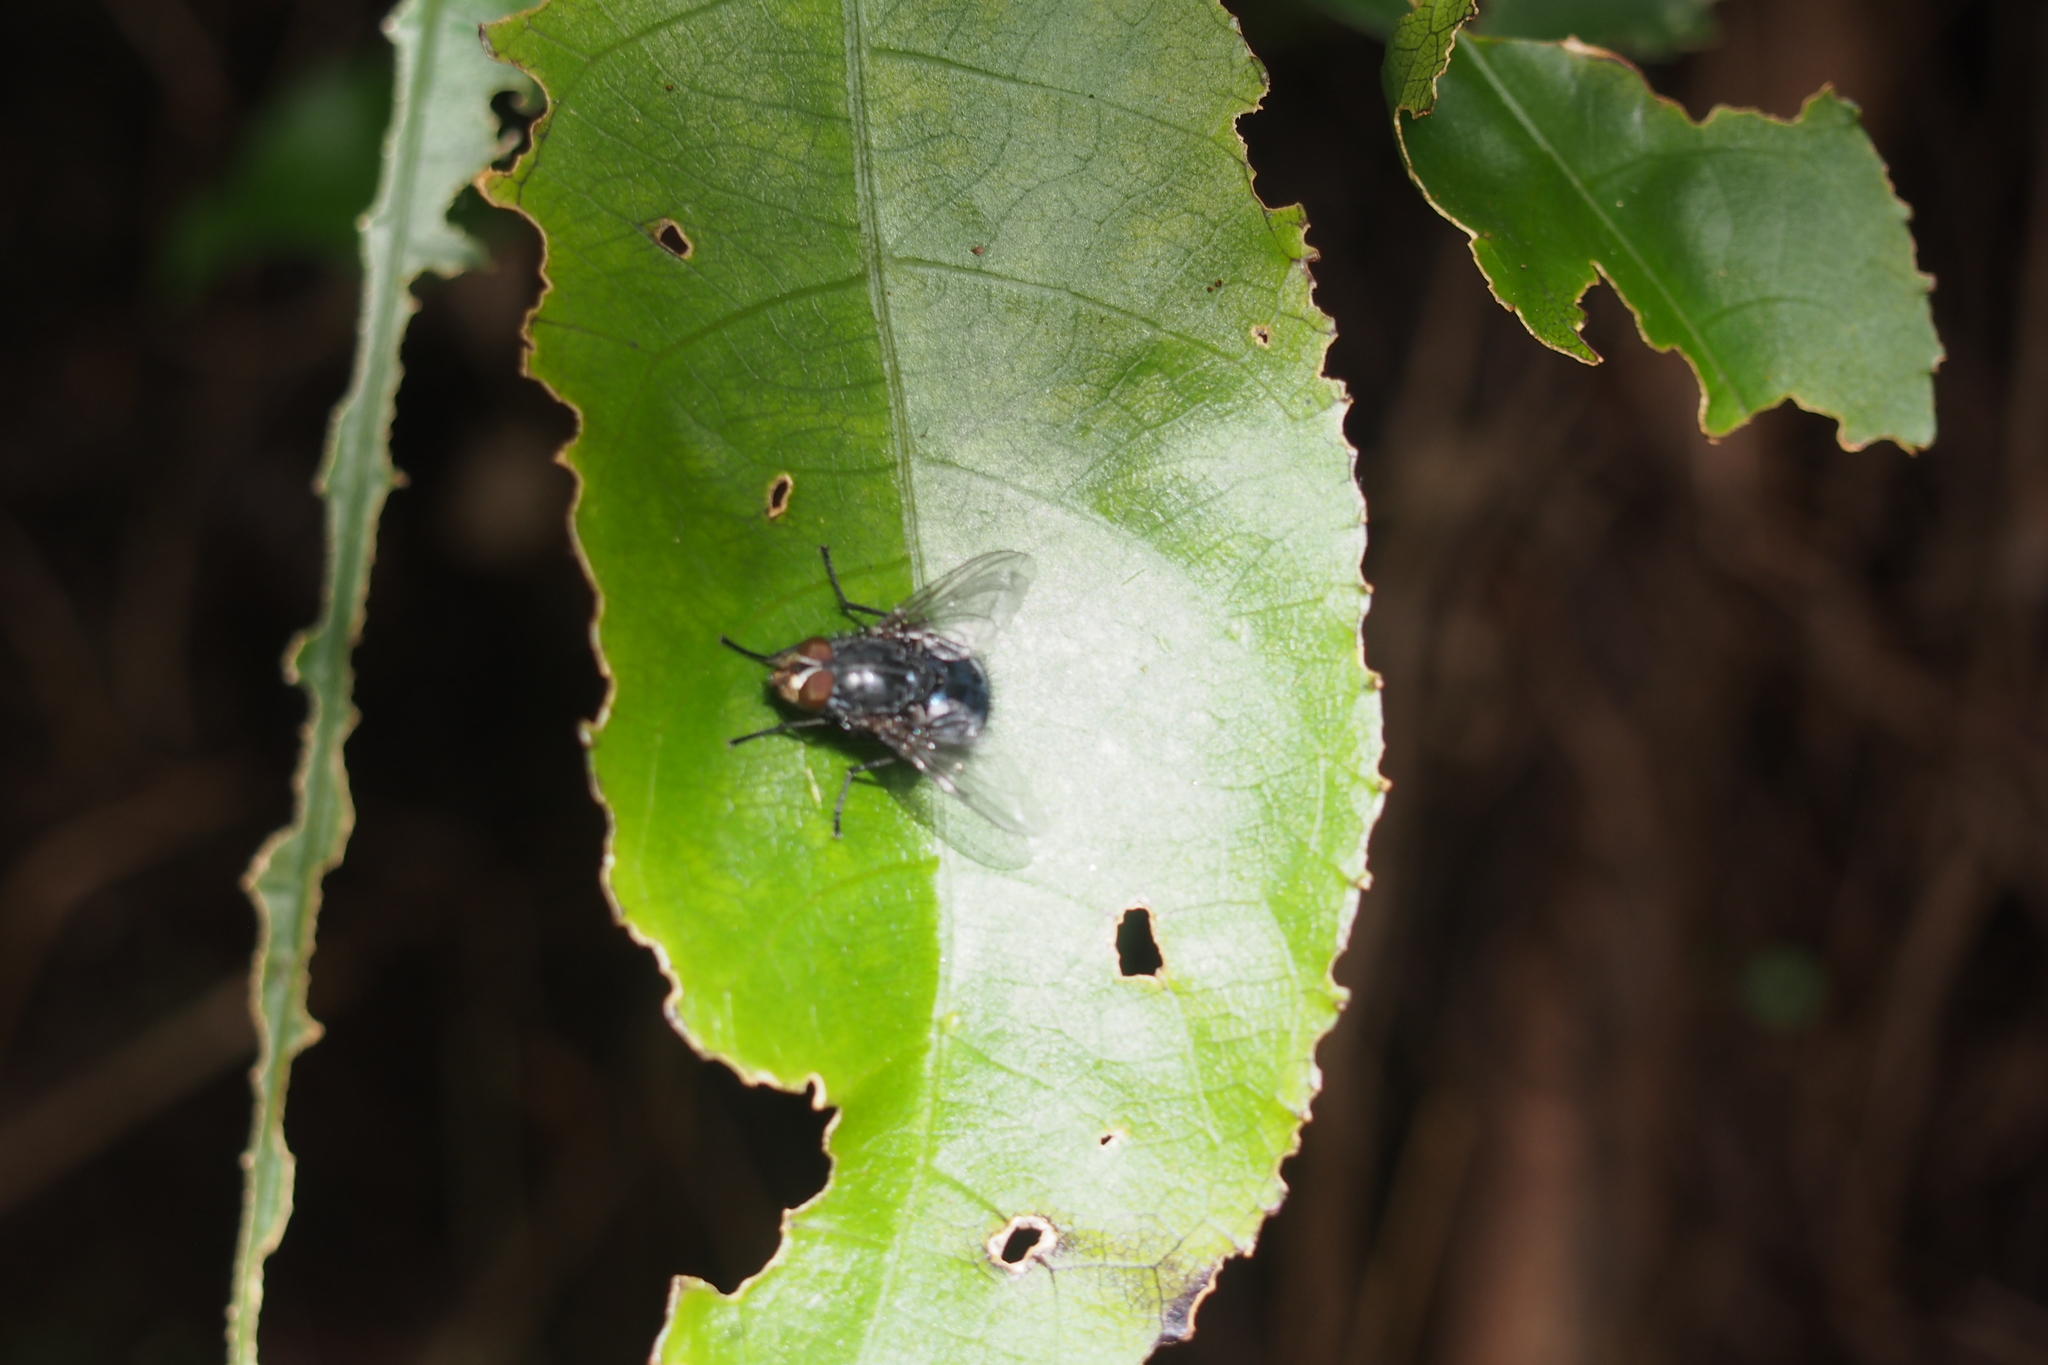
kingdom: Animalia
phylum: Arthropoda
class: Insecta
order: Diptera
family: Calliphoridae
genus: Calliphora
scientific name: Calliphora vicina
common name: Common blow flie
